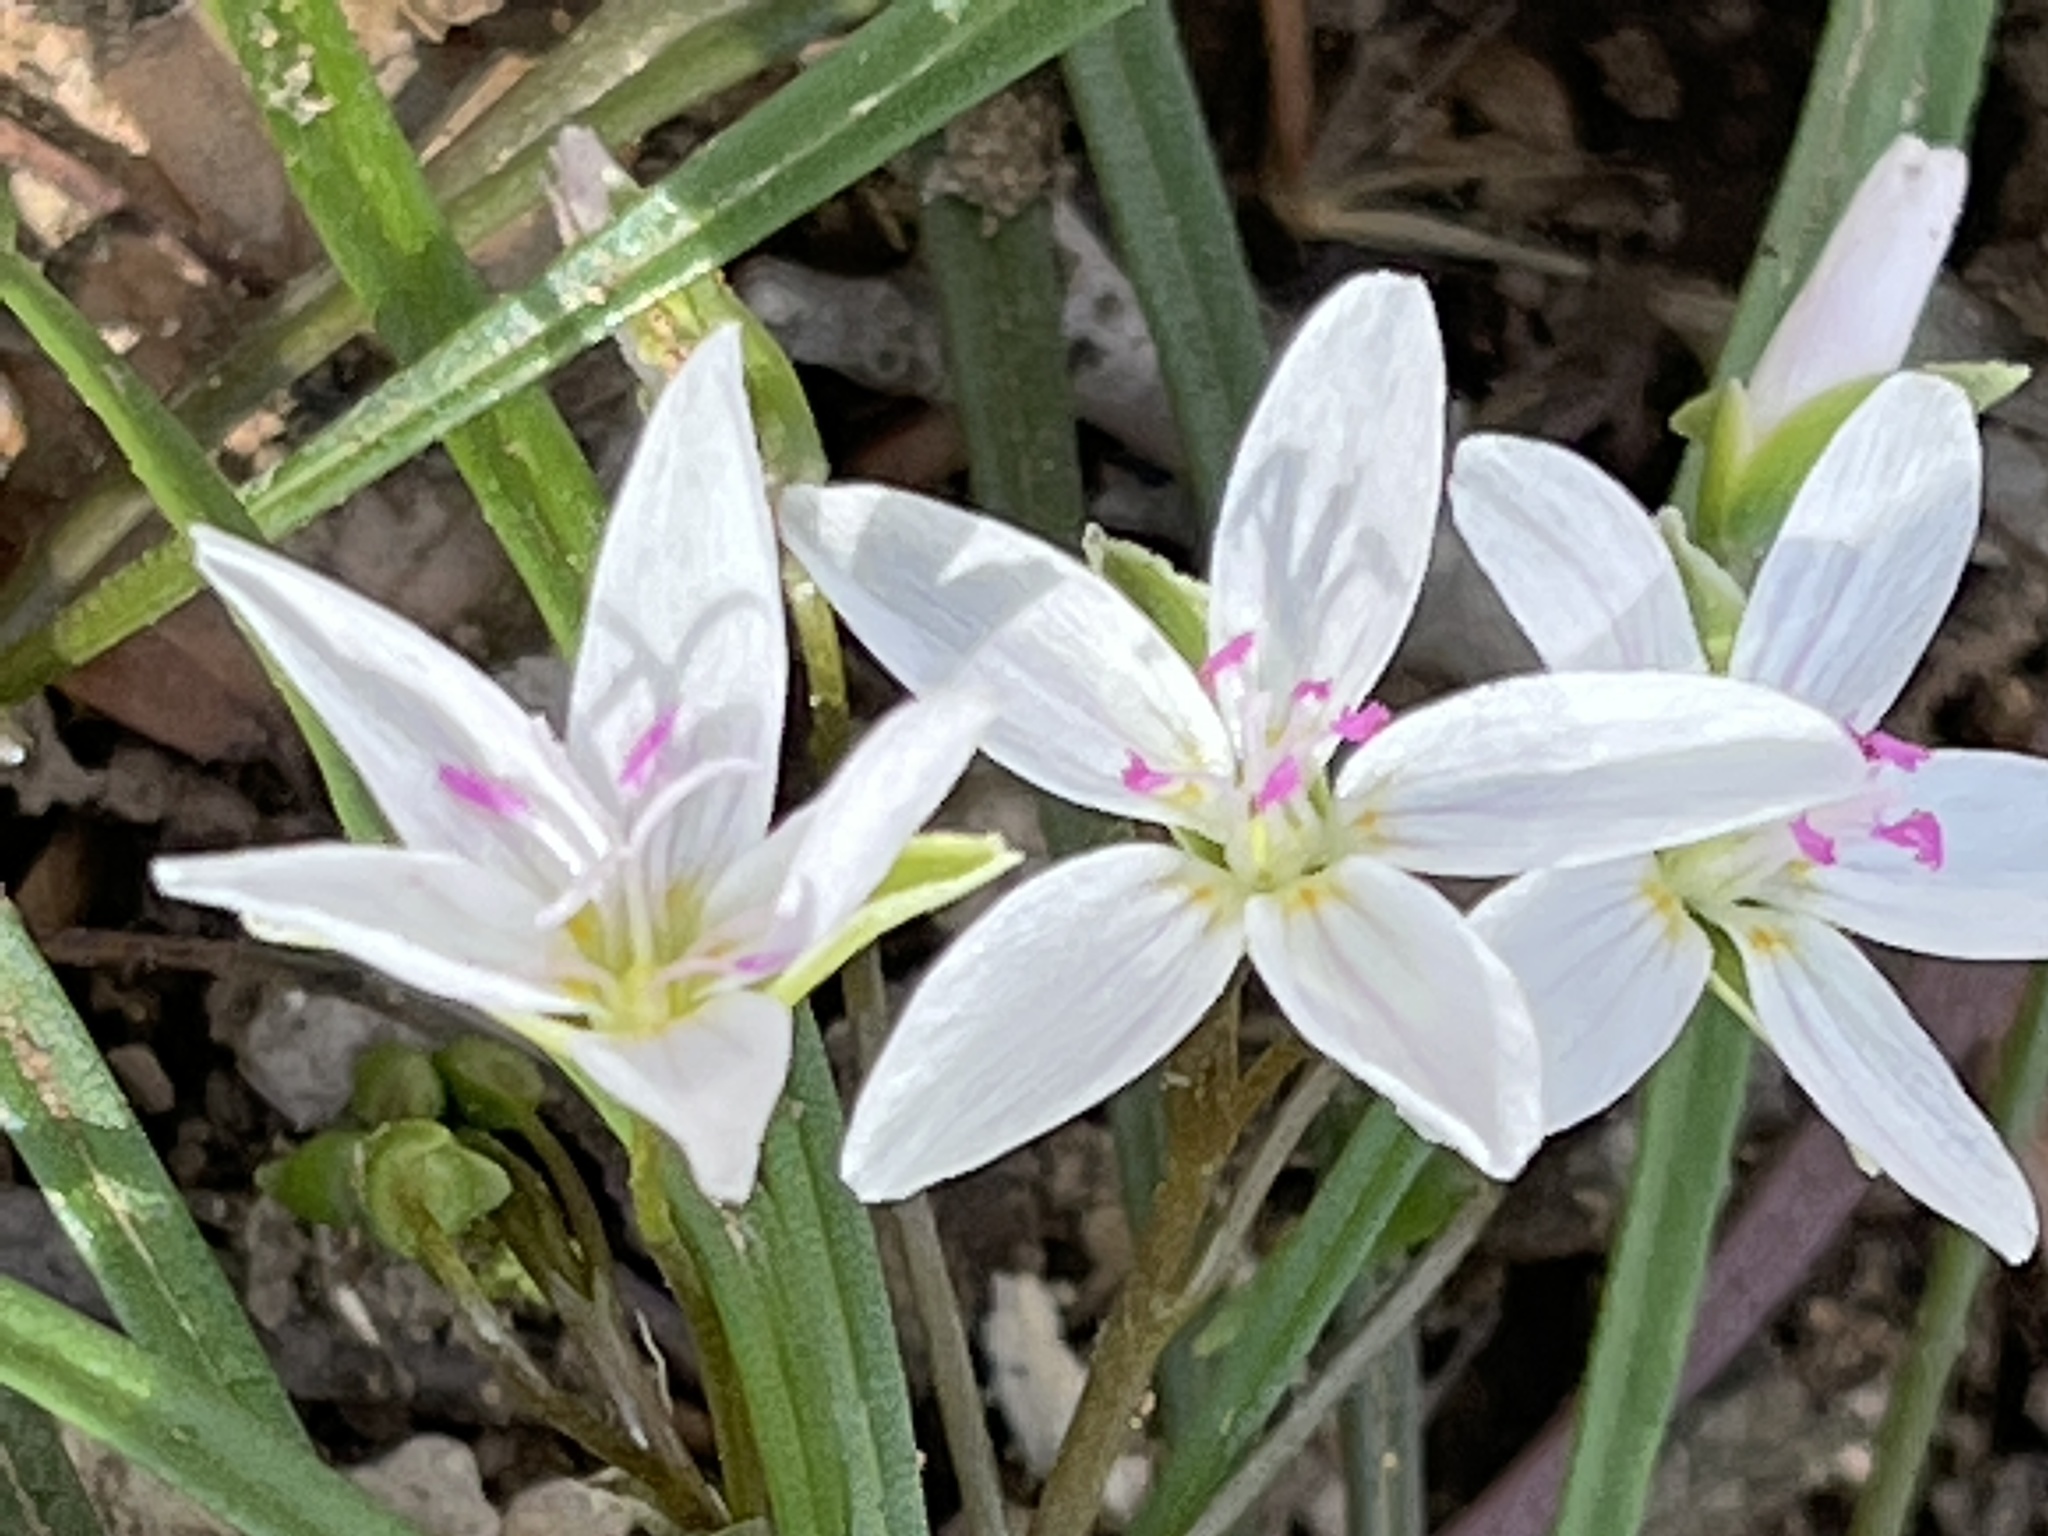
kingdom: Plantae
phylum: Tracheophyta
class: Magnoliopsida
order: Caryophyllales
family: Montiaceae
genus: Claytonia
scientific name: Claytonia virginica
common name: Virginia springbeauty
